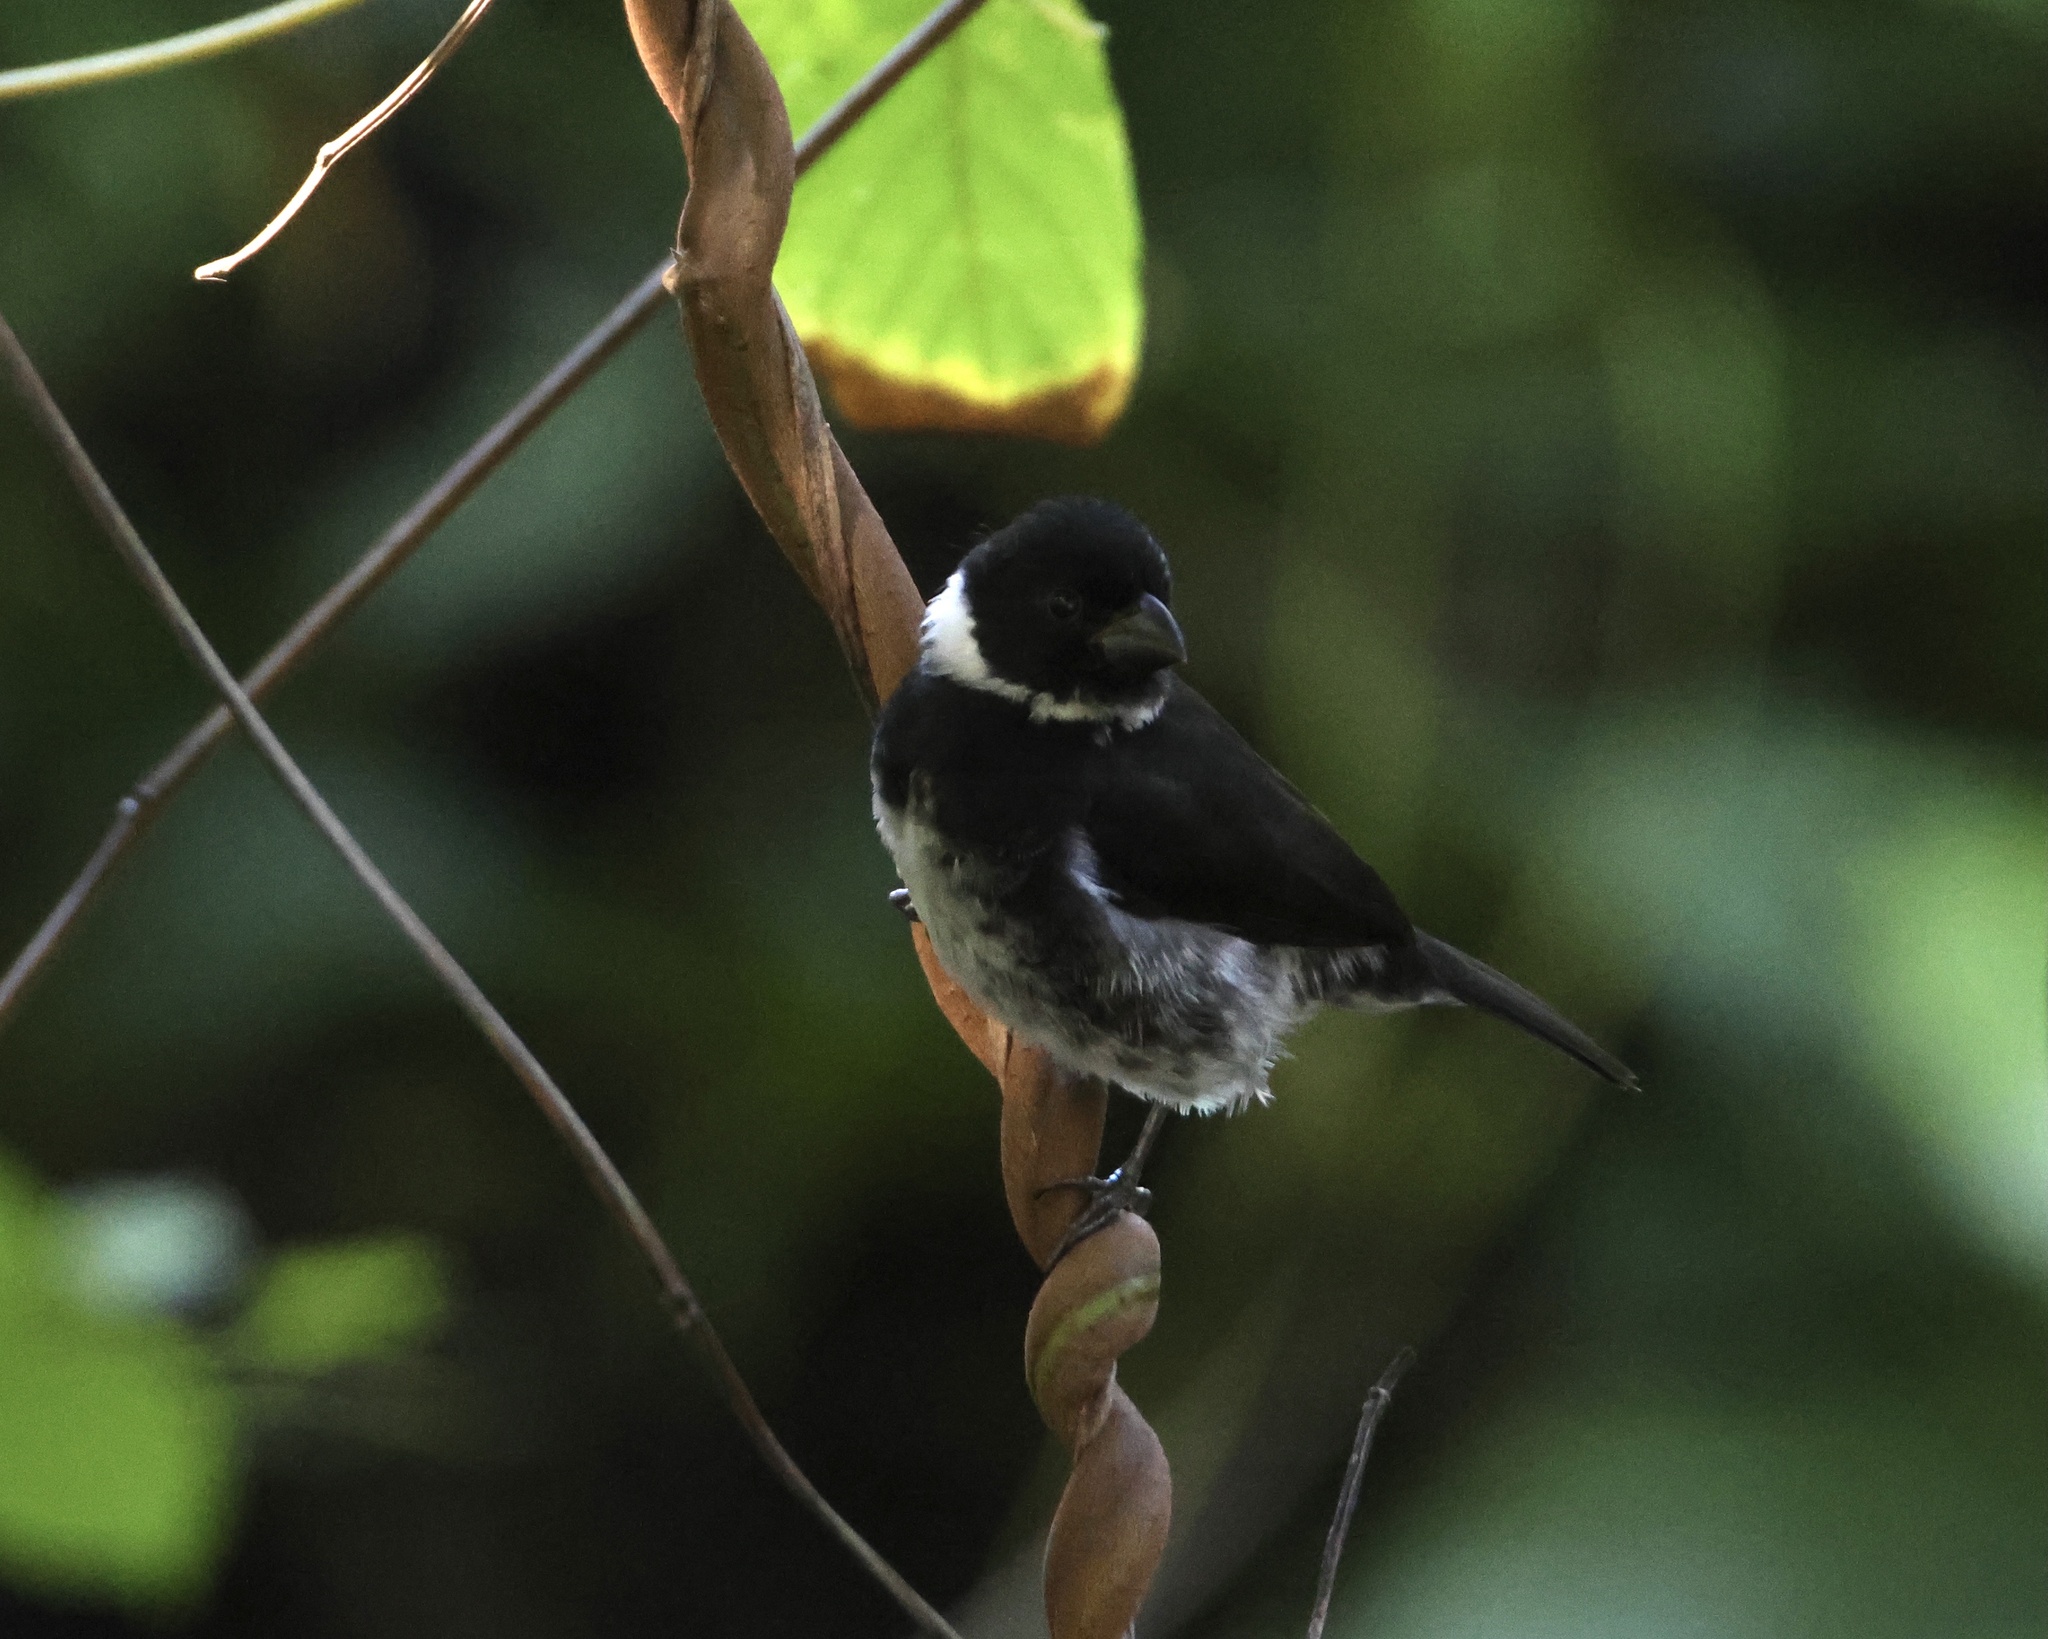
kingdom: Animalia
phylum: Chordata
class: Aves
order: Passeriformes
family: Thraupidae
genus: Sporophila
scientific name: Sporophila corvina
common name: Variable seedeater
